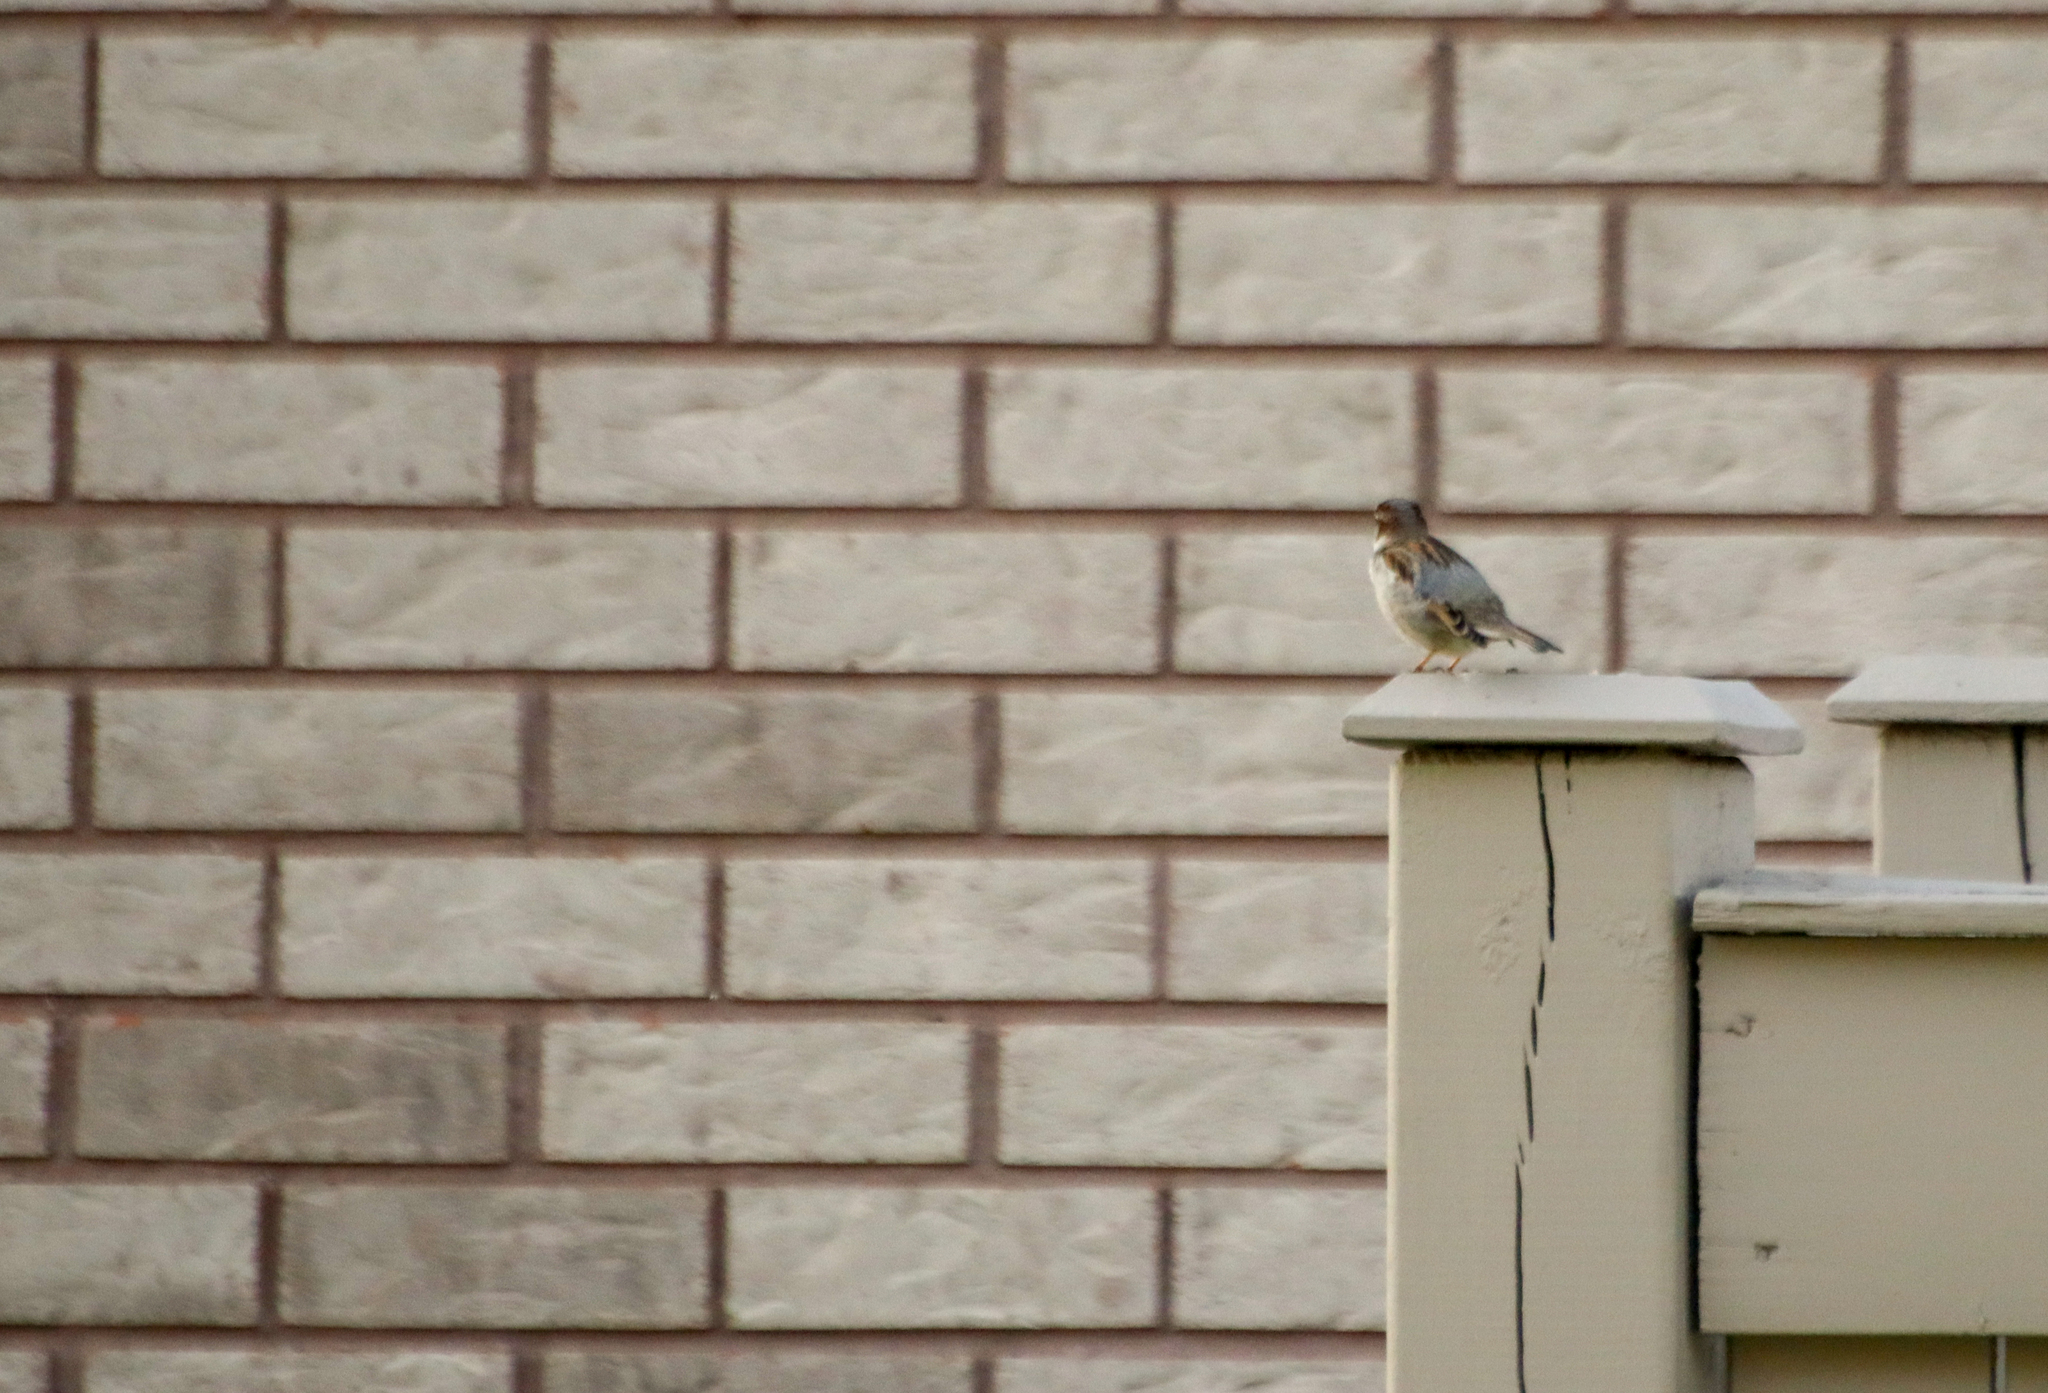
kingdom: Animalia
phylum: Chordata
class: Aves
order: Passeriformes
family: Passeridae
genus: Passer
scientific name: Passer domesticus
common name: House sparrow
